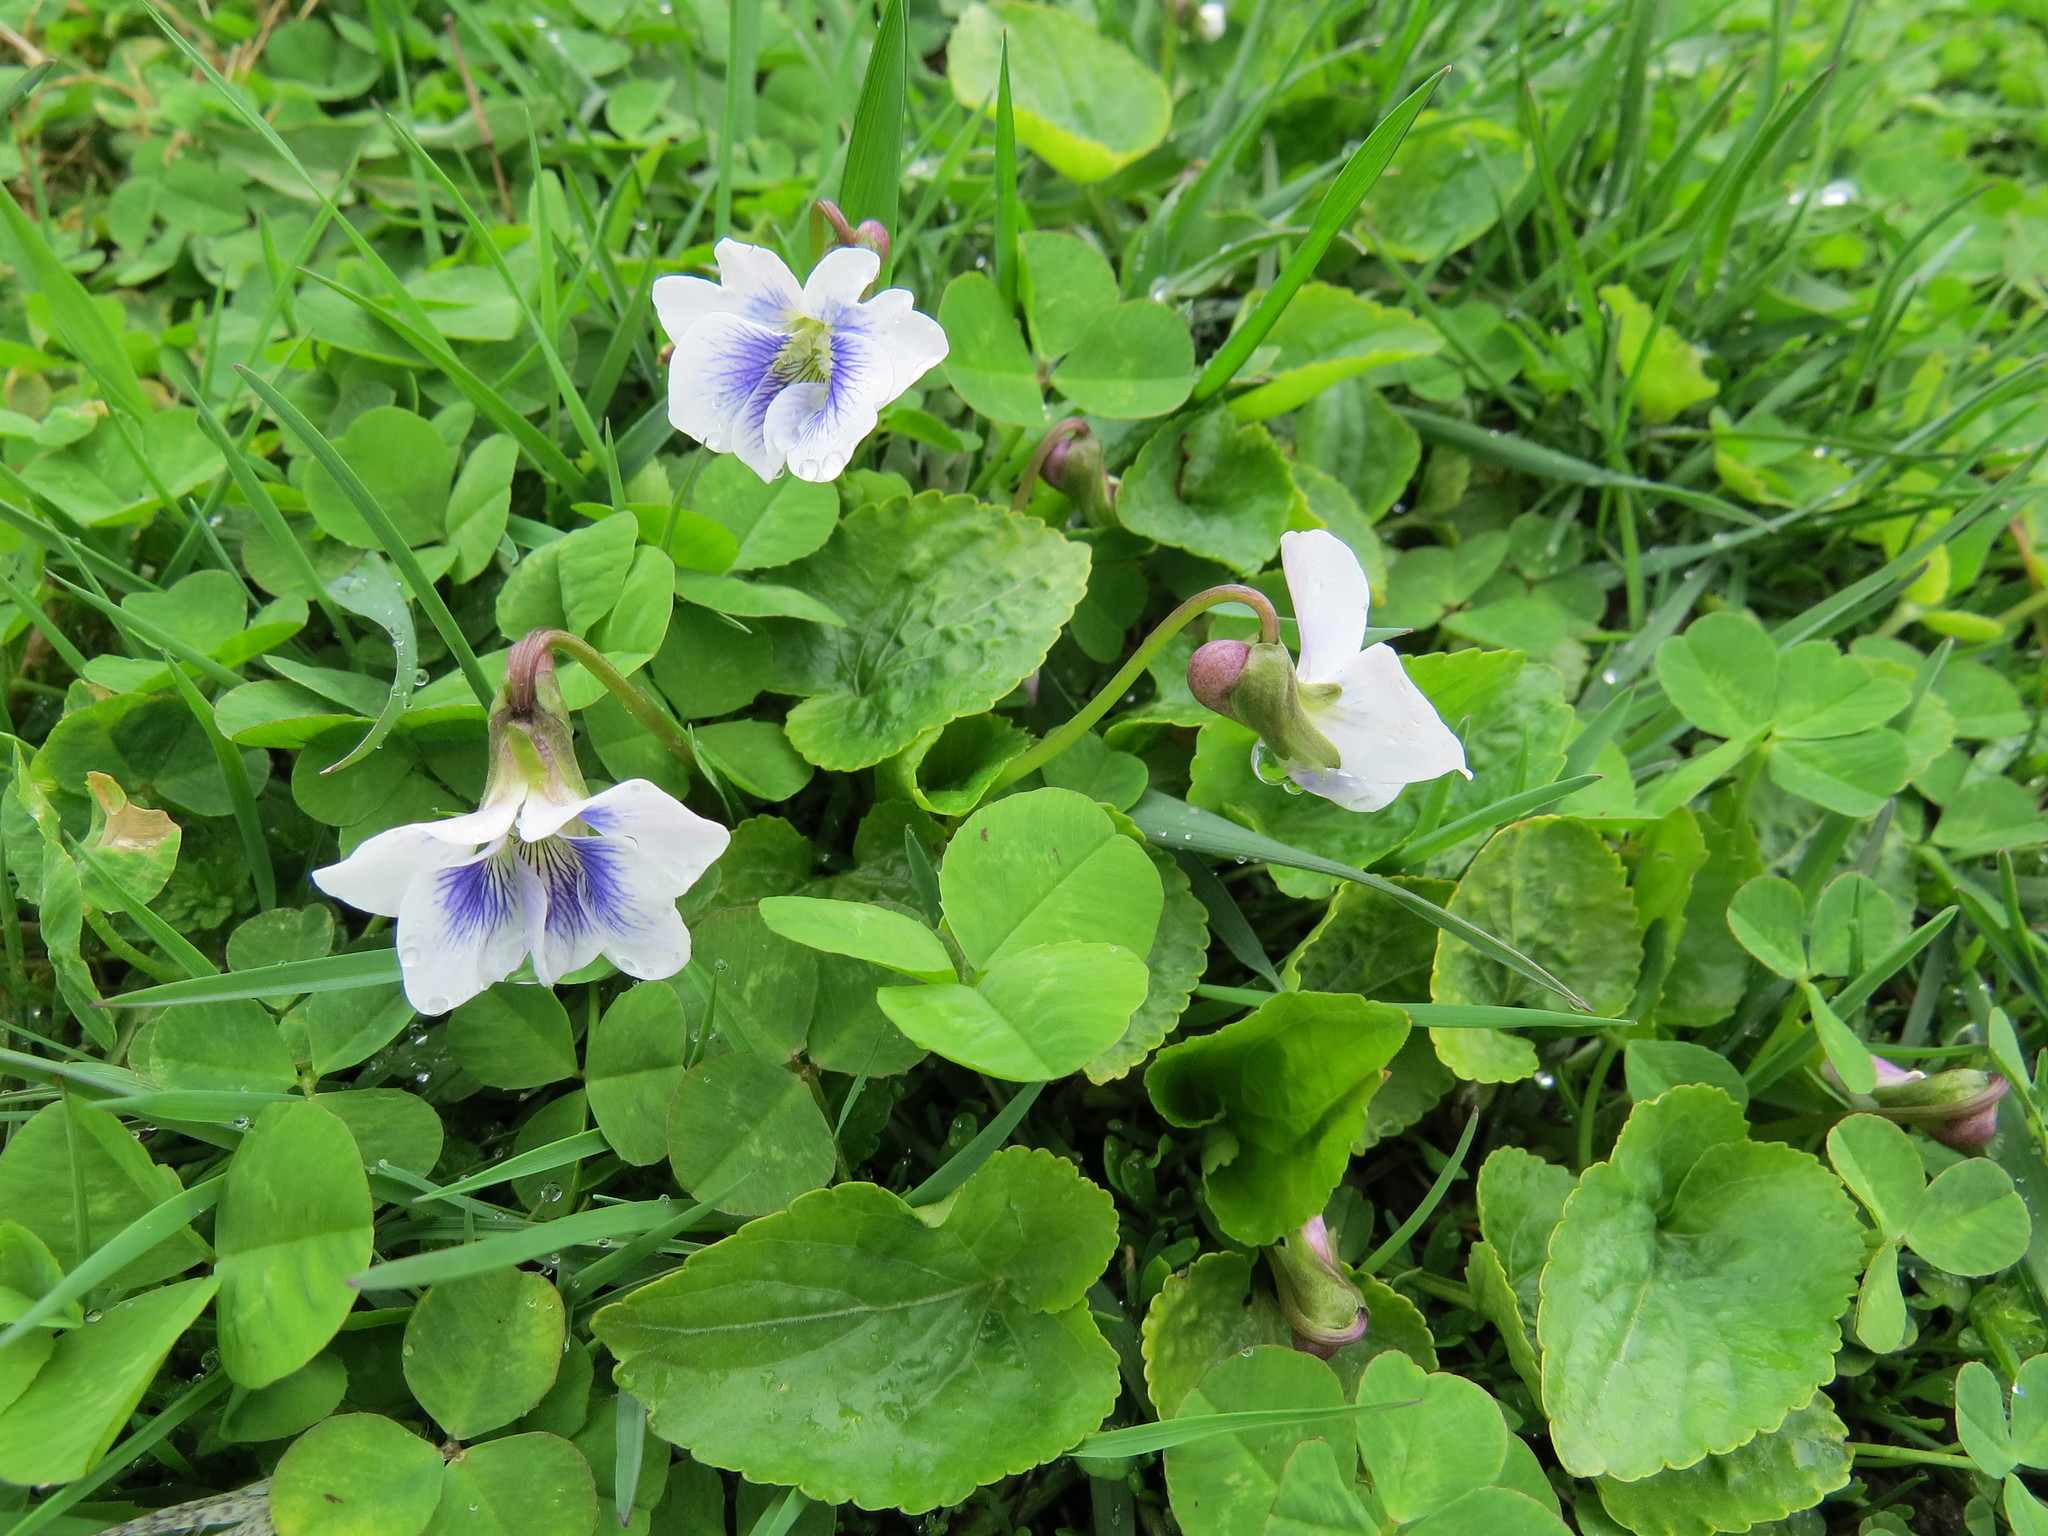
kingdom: Plantae
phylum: Tracheophyta
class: Magnoliopsida
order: Malpighiales
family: Violaceae
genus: Viola
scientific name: Viola sororia
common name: Dooryard violet
